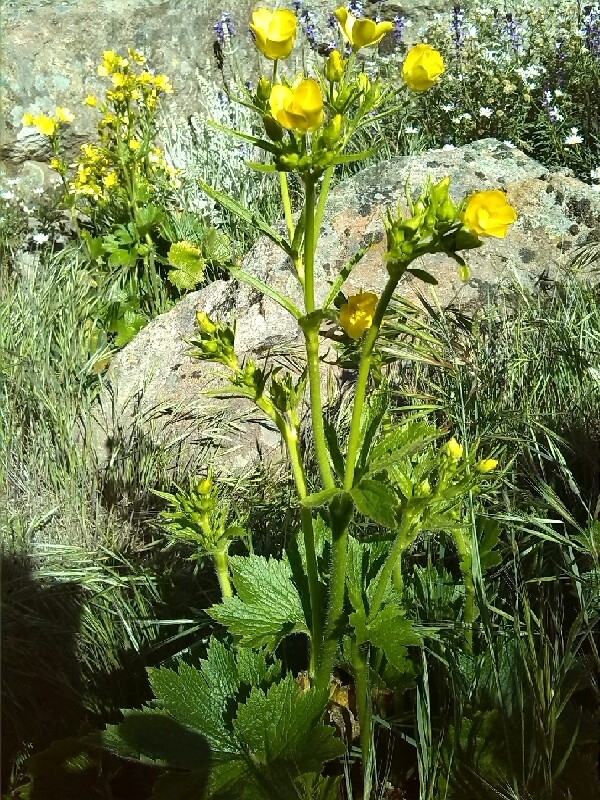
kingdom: Plantae
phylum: Tracheophyta
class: Magnoliopsida
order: Ranunculales
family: Ranunculaceae
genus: Ranunculus
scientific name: Ranunculus cortusifolius
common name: Azores buttercup
